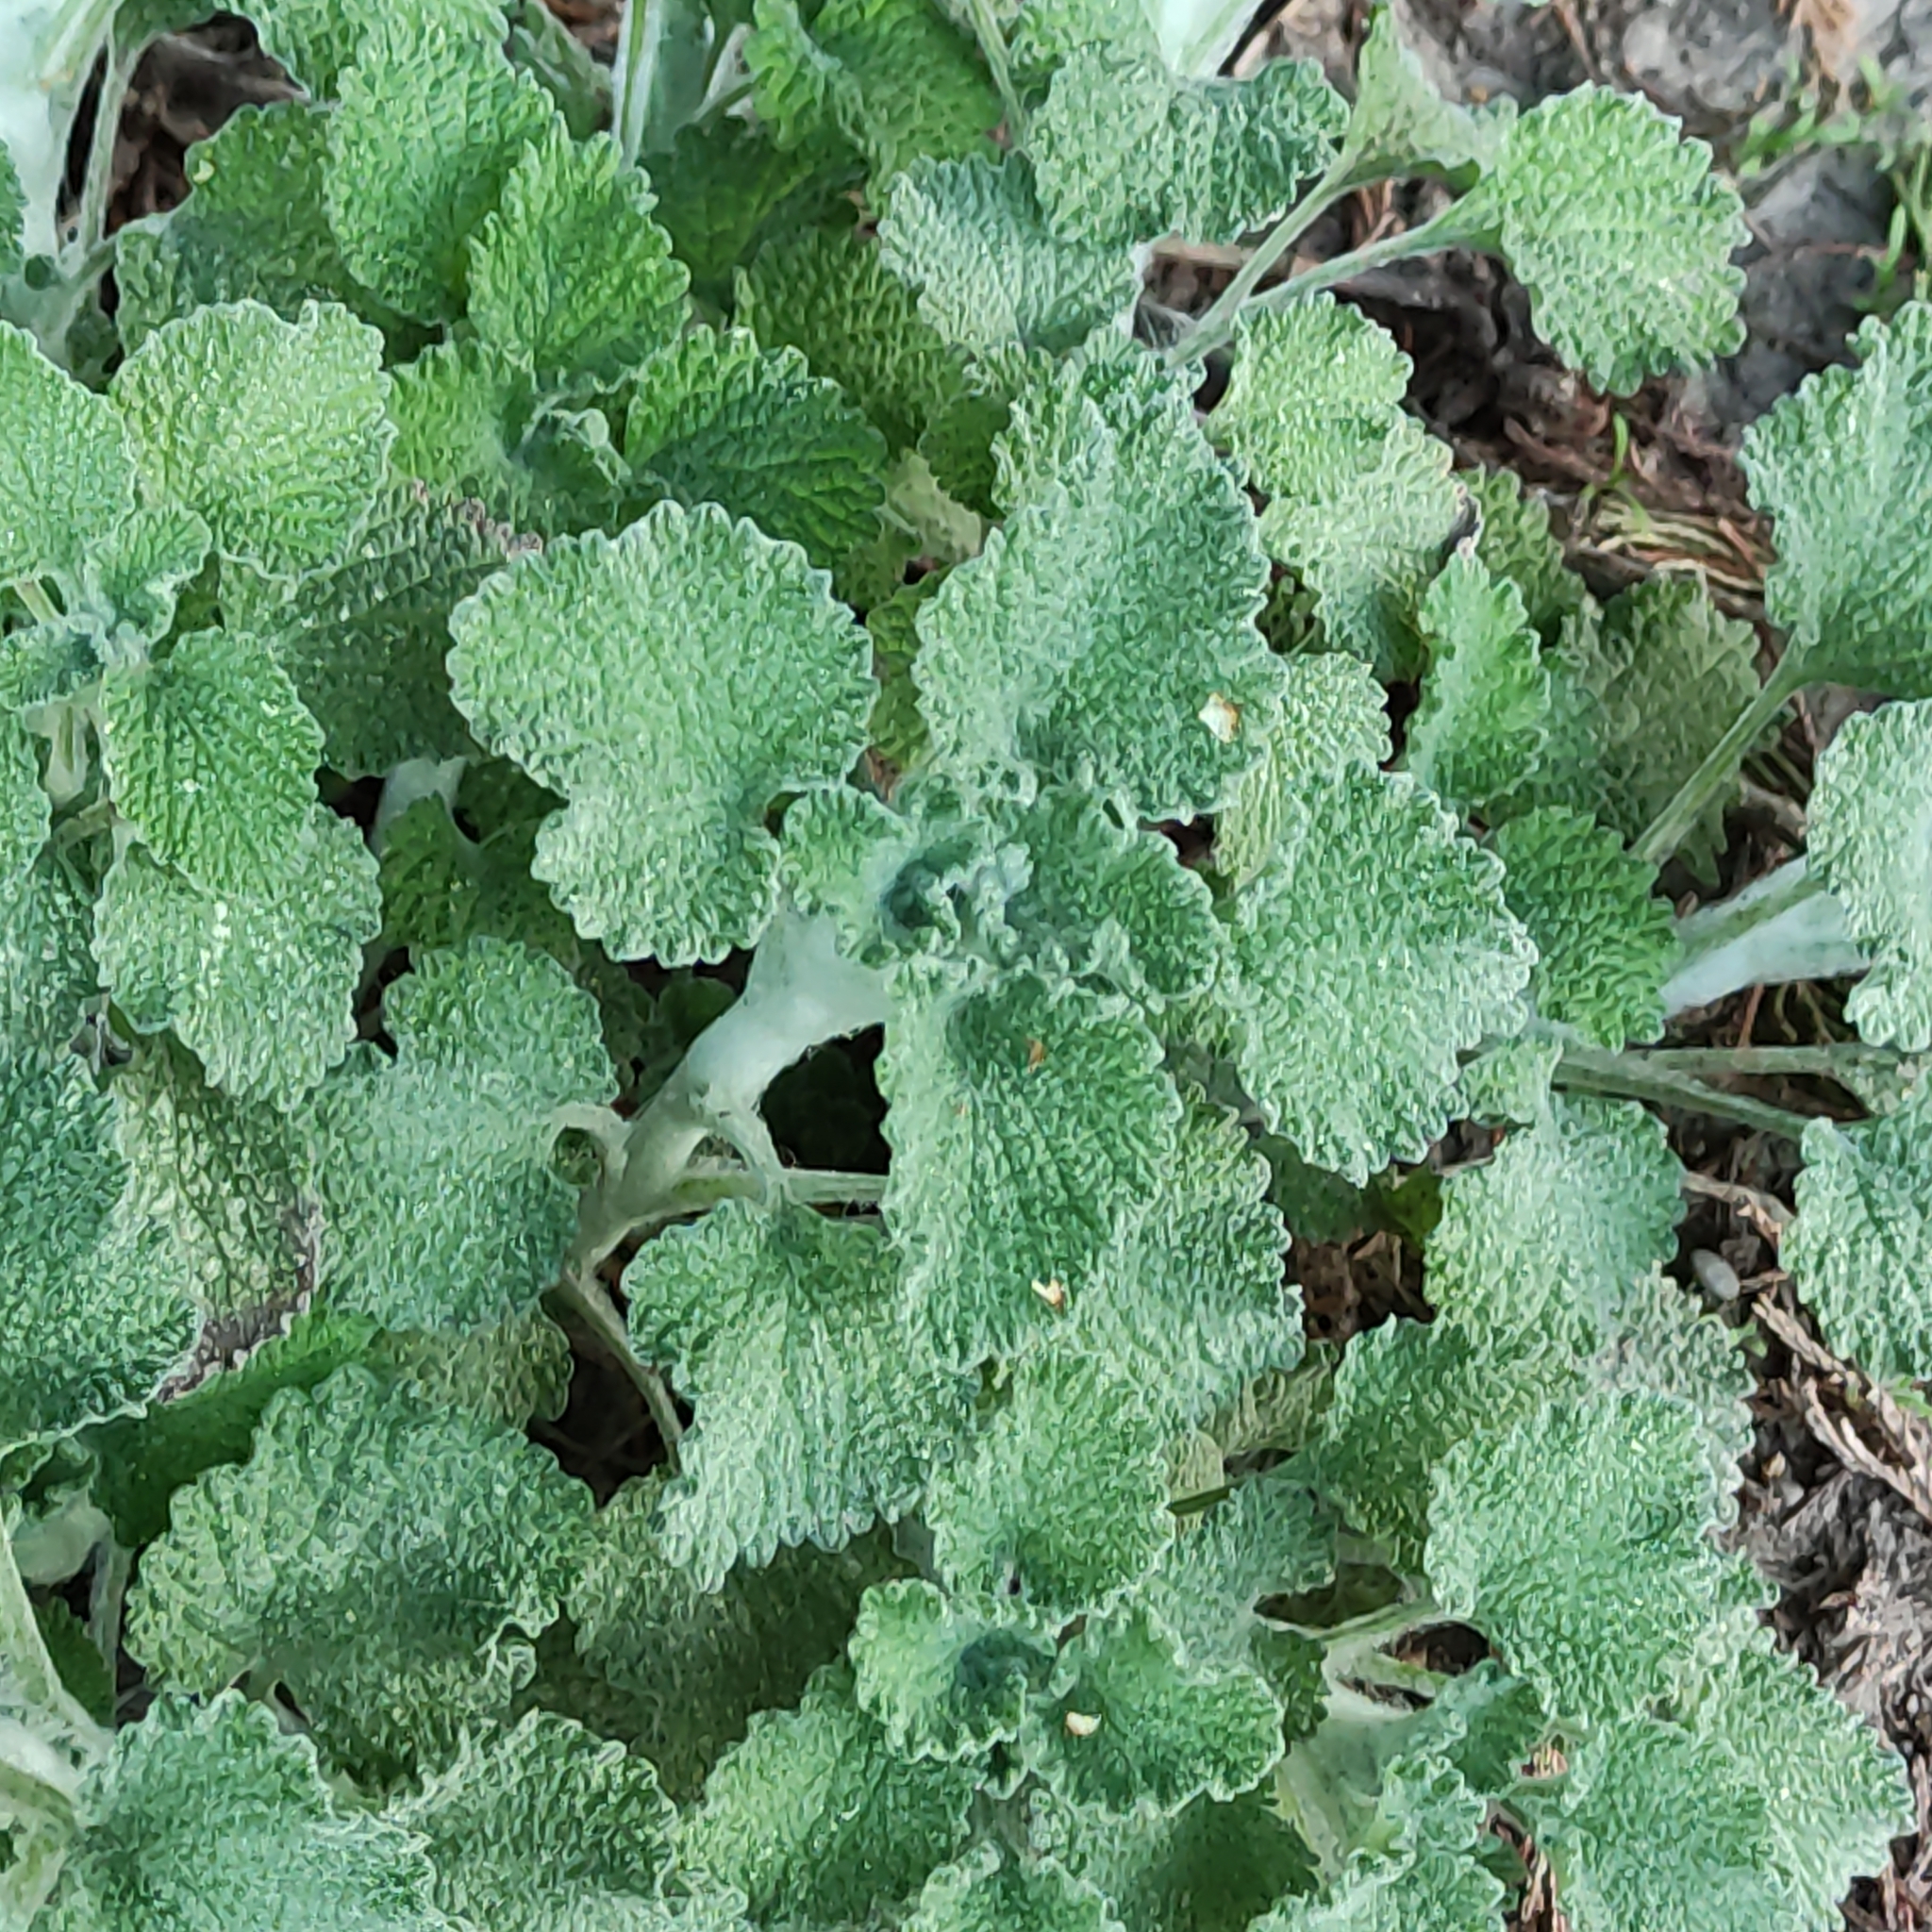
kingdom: Plantae
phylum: Tracheophyta
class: Magnoliopsida
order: Lamiales
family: Lamiaceae
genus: Marrubium
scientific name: Marrubium vulgare
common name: Horehound
